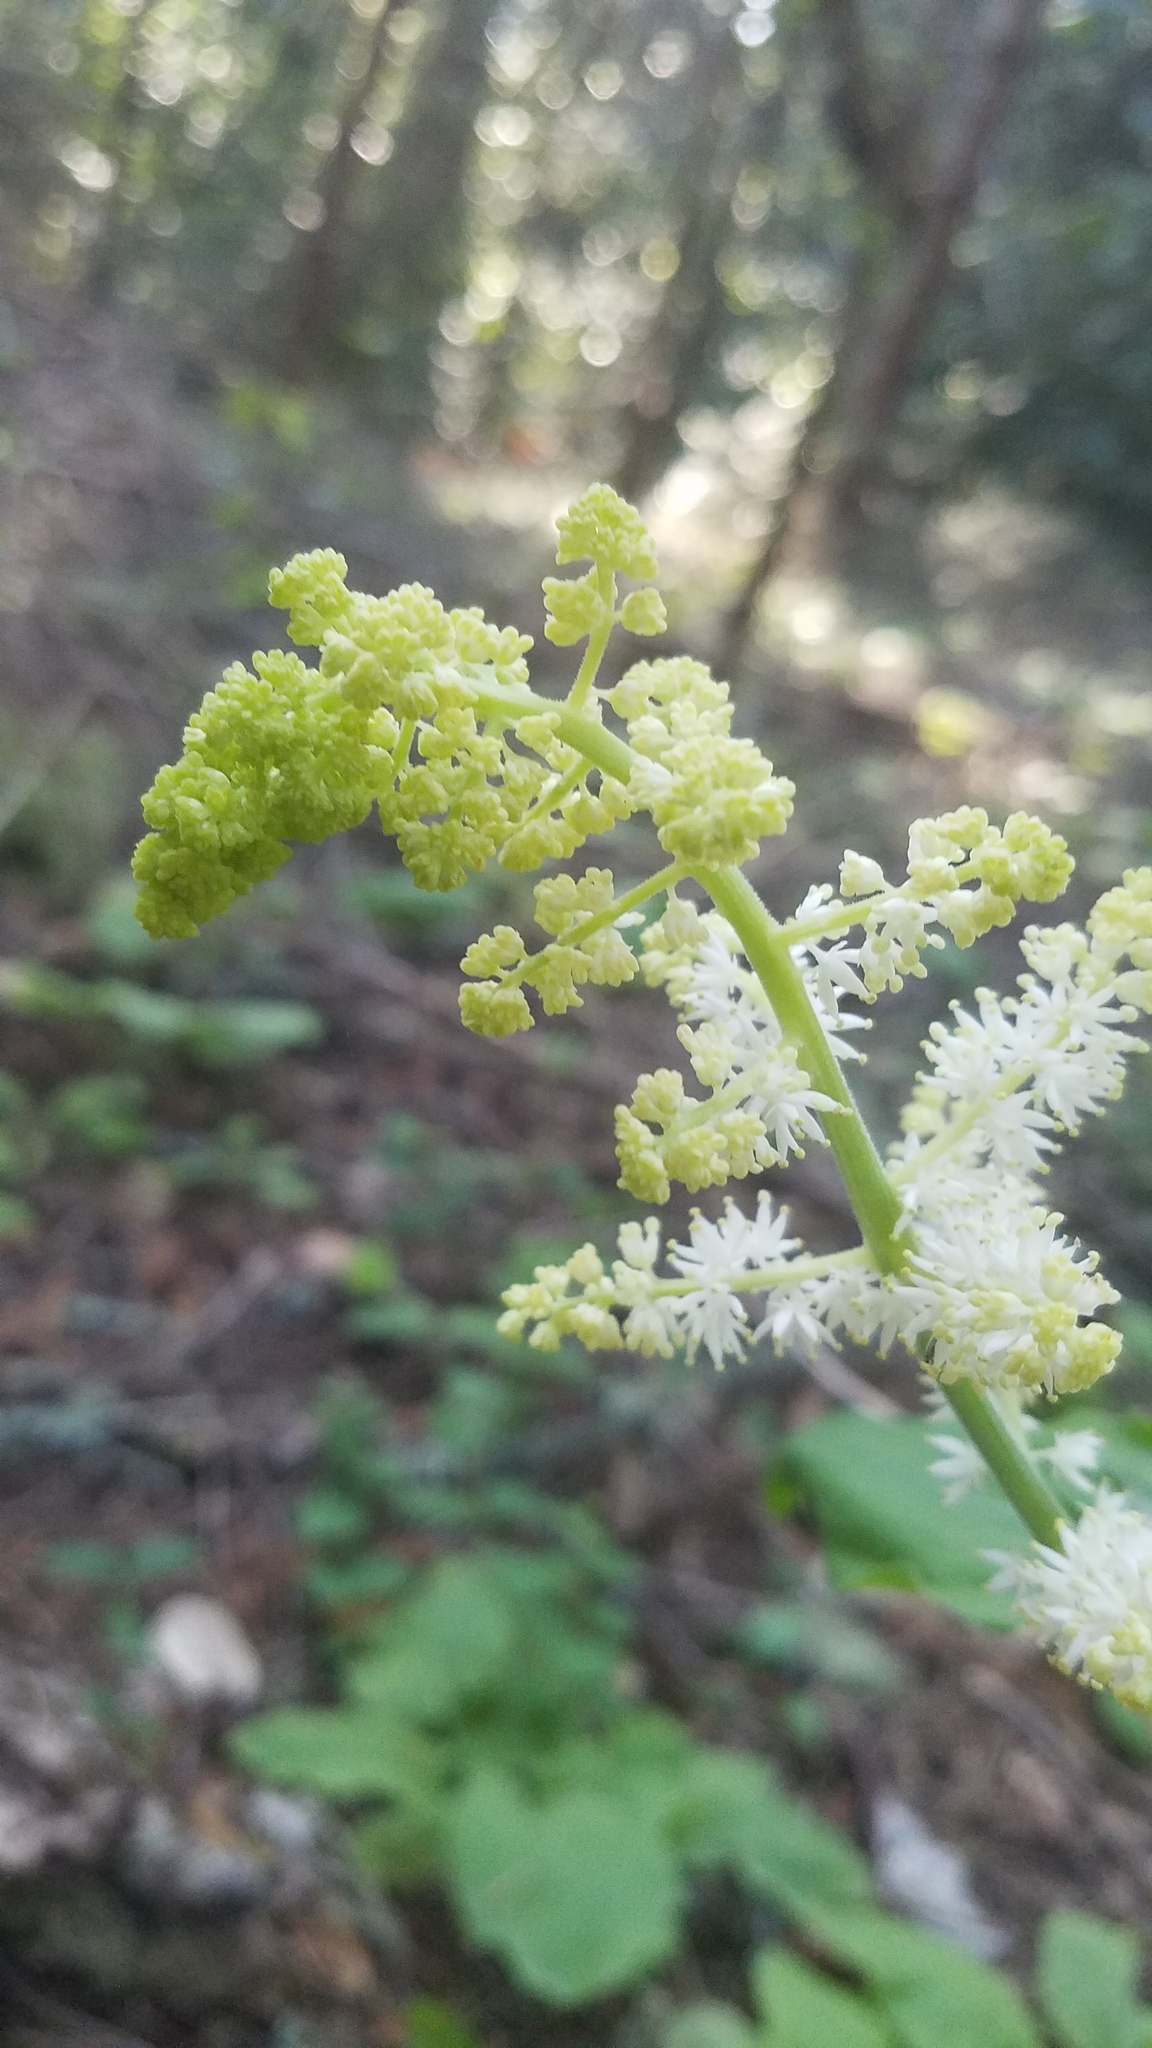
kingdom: Plantae
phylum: Tracheophyta
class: Liliopsida
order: Asparagales
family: Asparagaceae
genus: Maianthemum
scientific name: Maianthemum racemosum
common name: False spikenard
